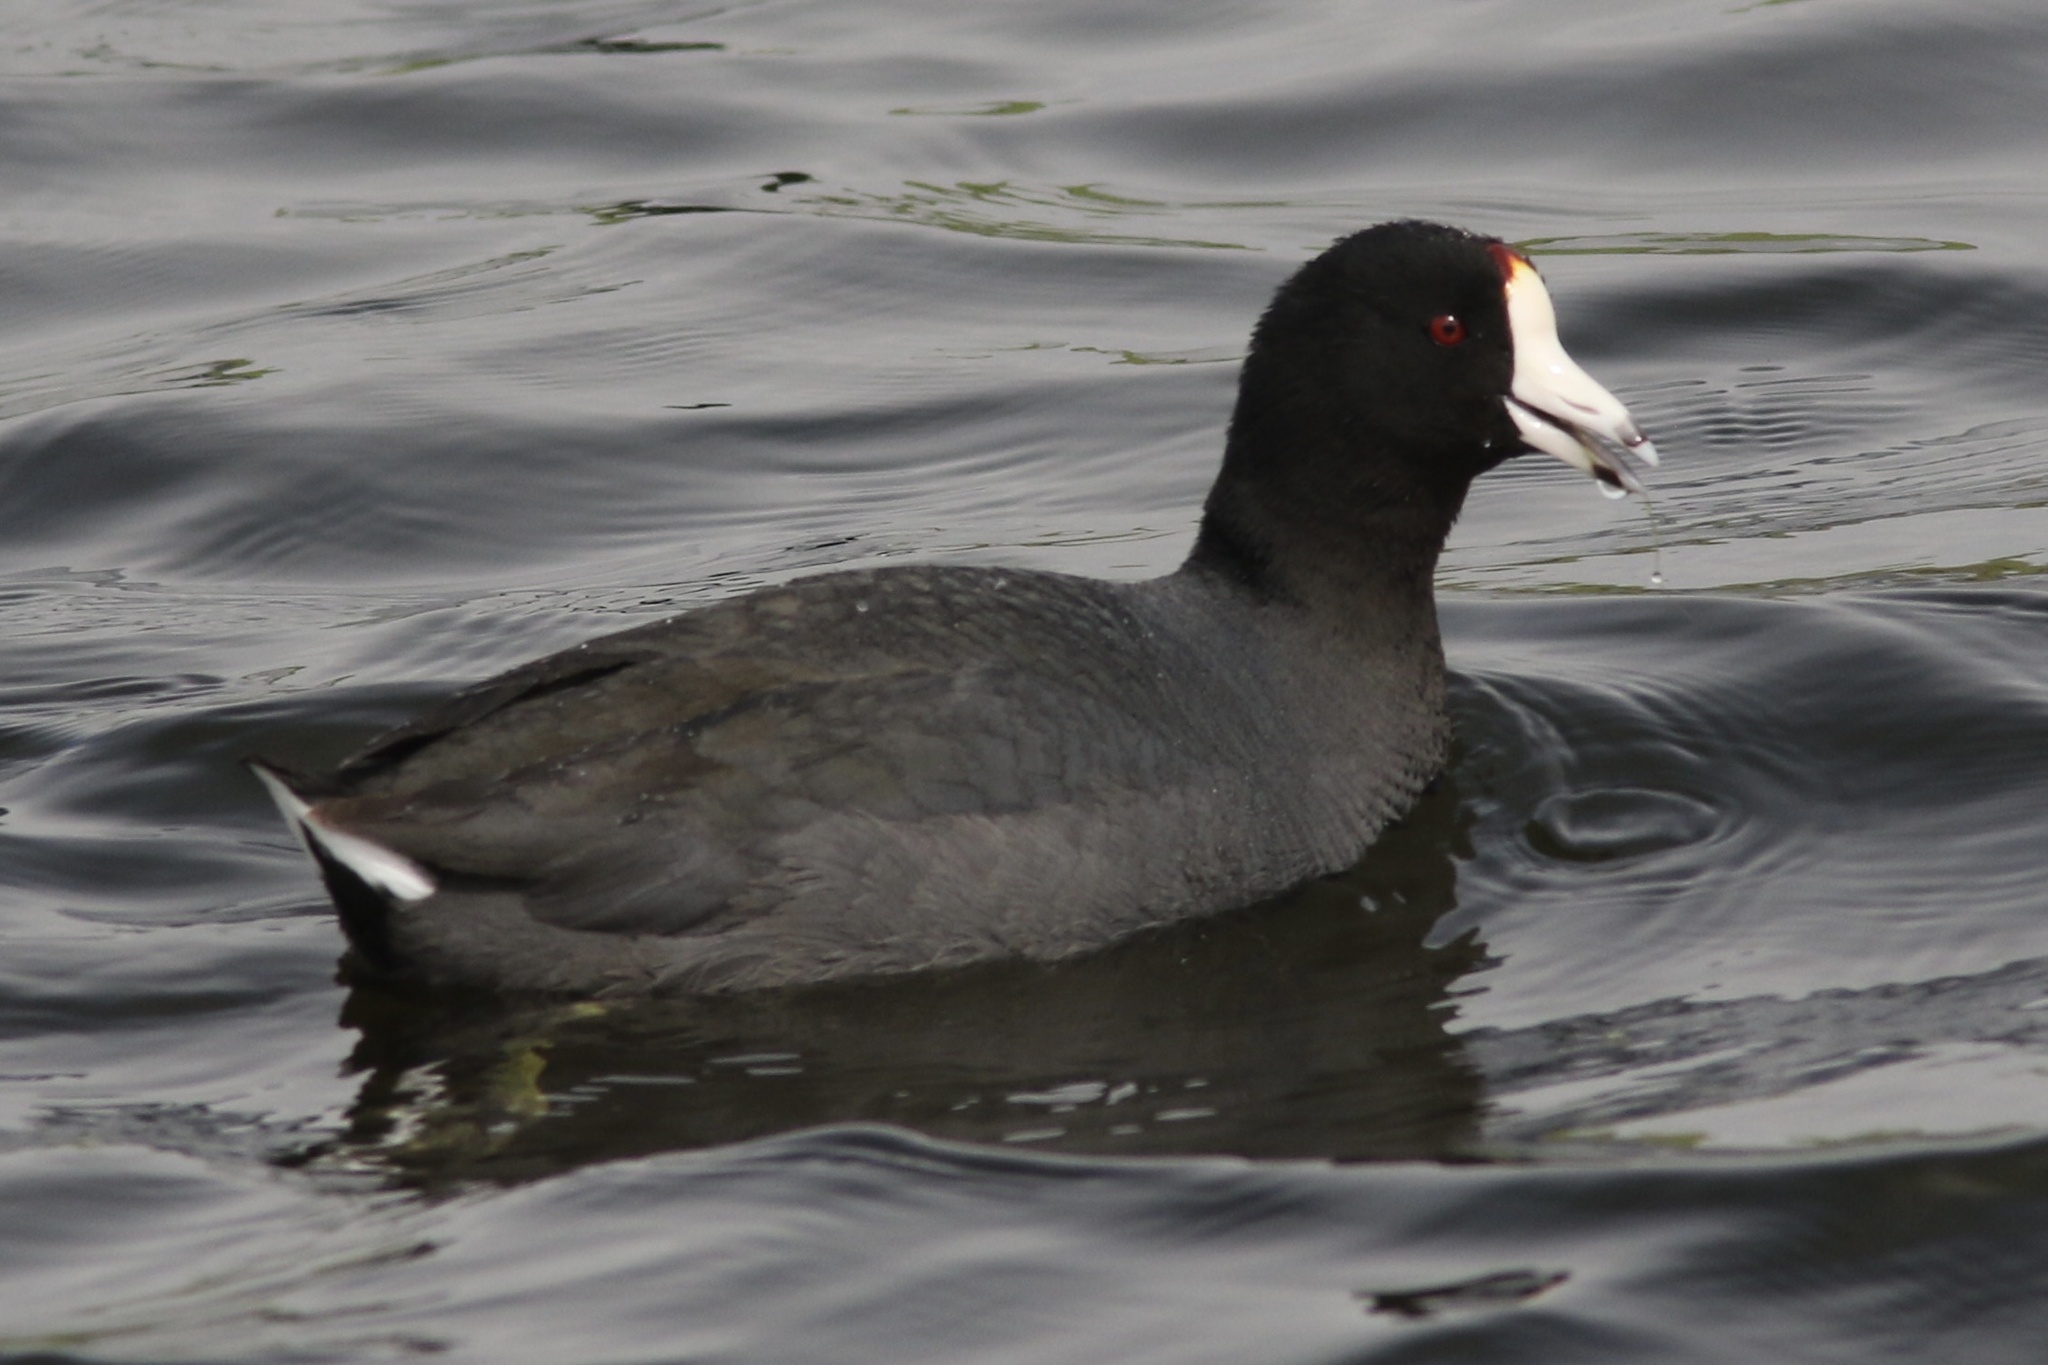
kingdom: Animalia
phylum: Chordata
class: Aves
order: Gruiformes
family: Rallidae
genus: Fulica
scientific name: Fulica americana
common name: American coot
